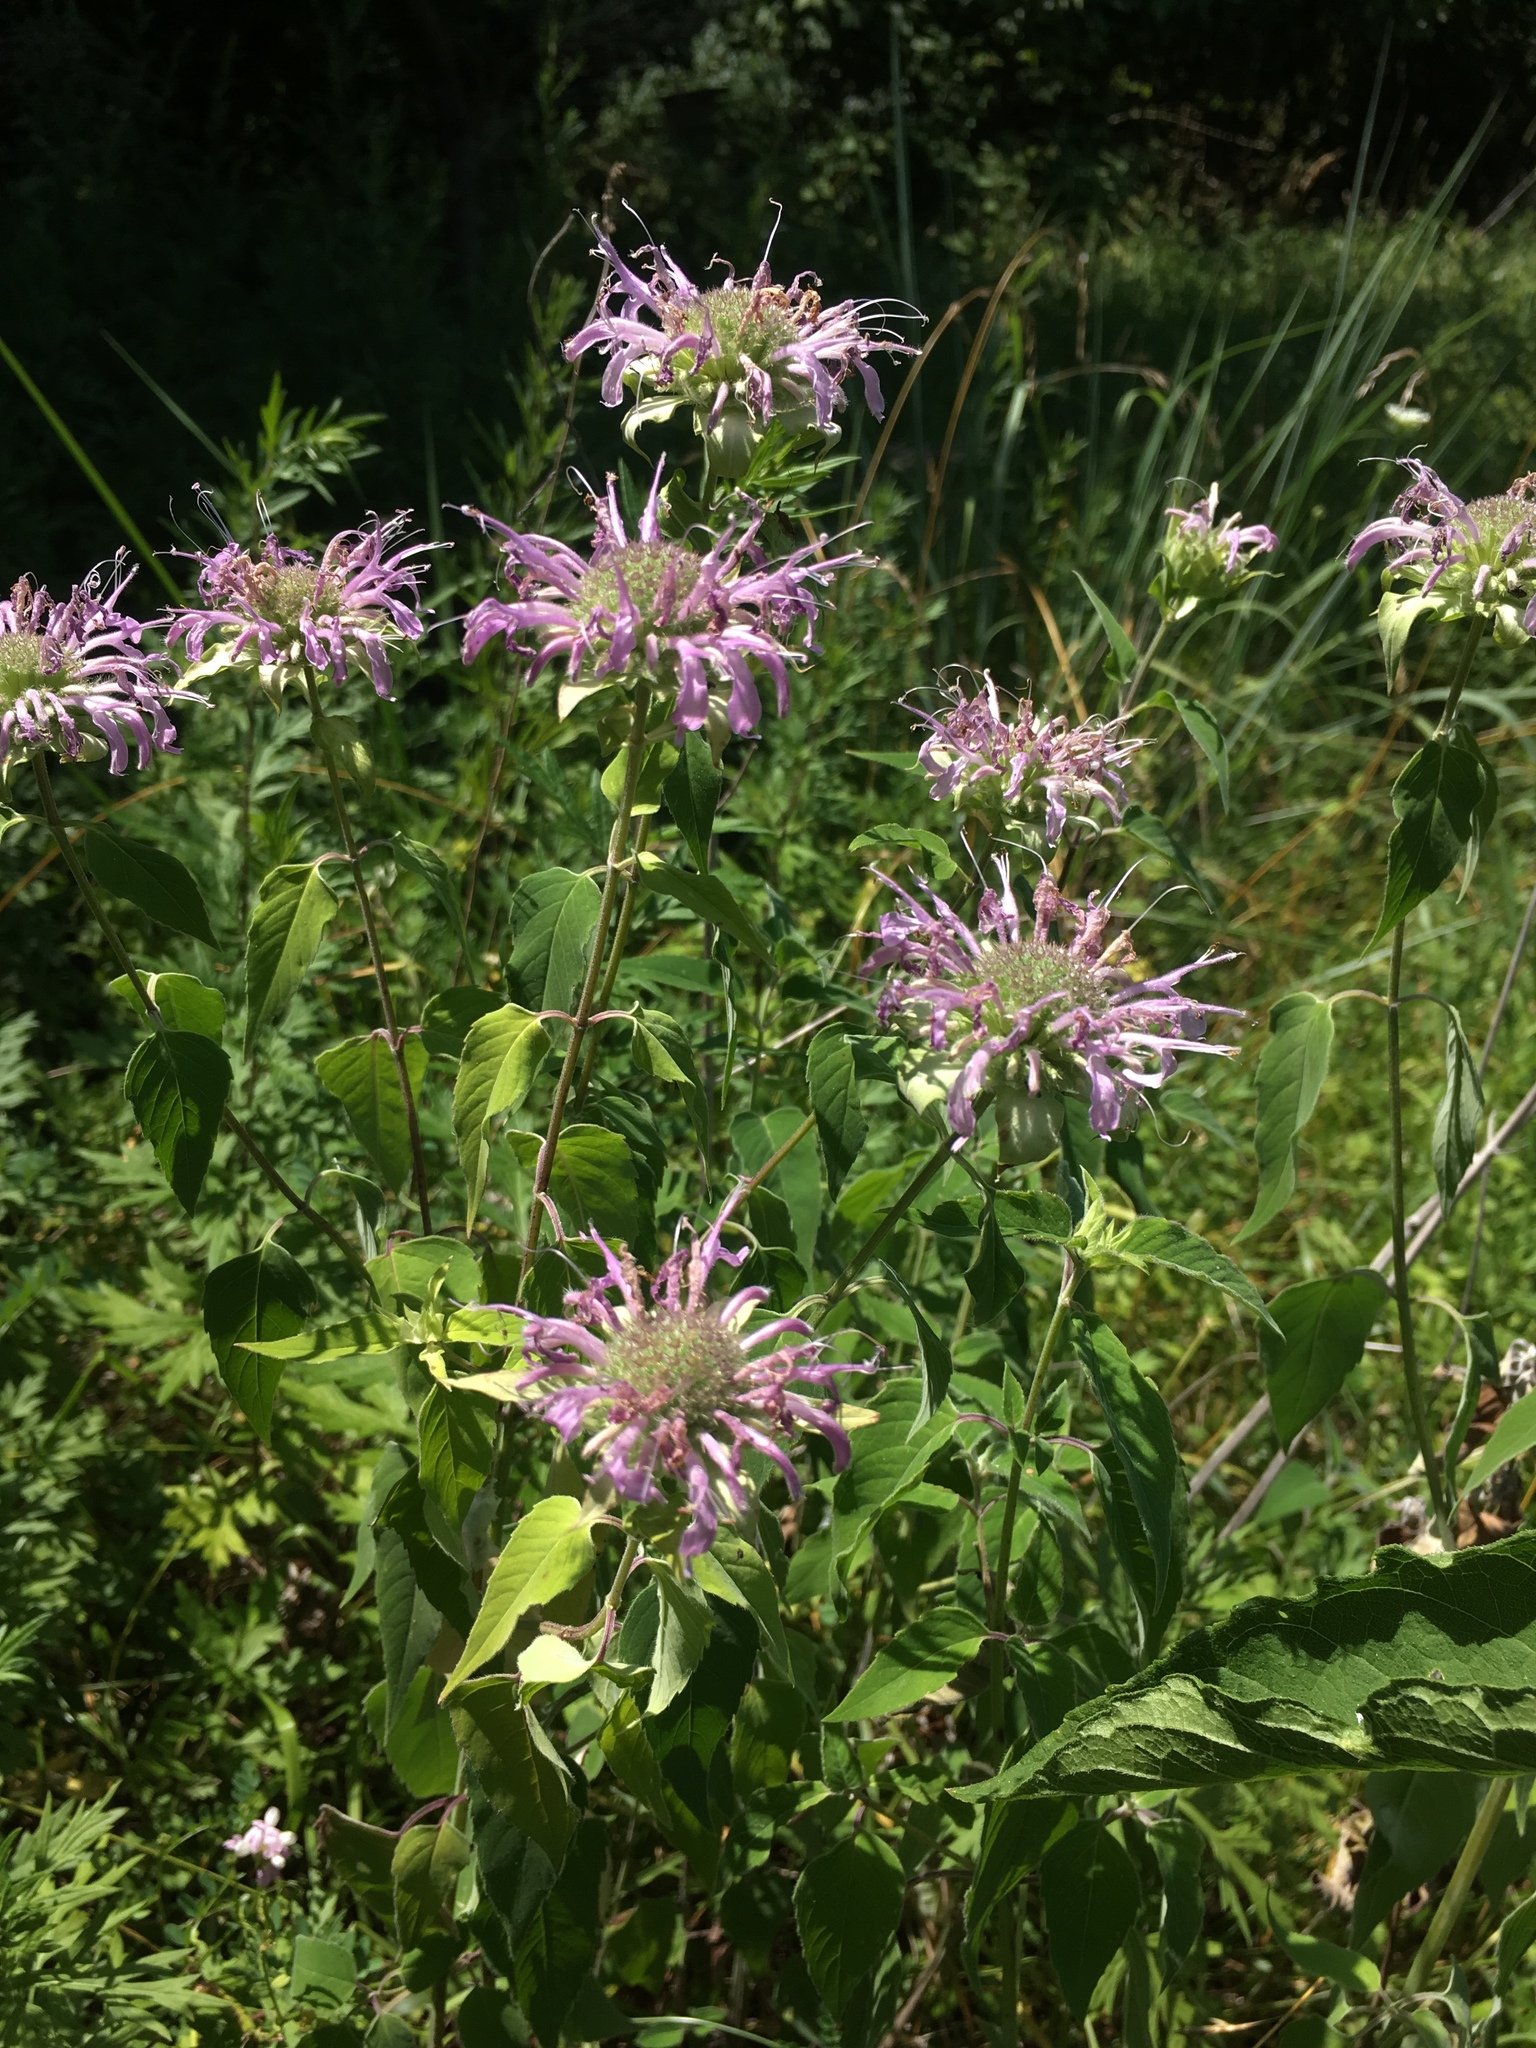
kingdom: Plantae
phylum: Tracheophyta
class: Magnoliopsida
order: Lamiales
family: Lamiaceae
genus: Monarda
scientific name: Monarda fistulosa
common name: Purple beebalm
